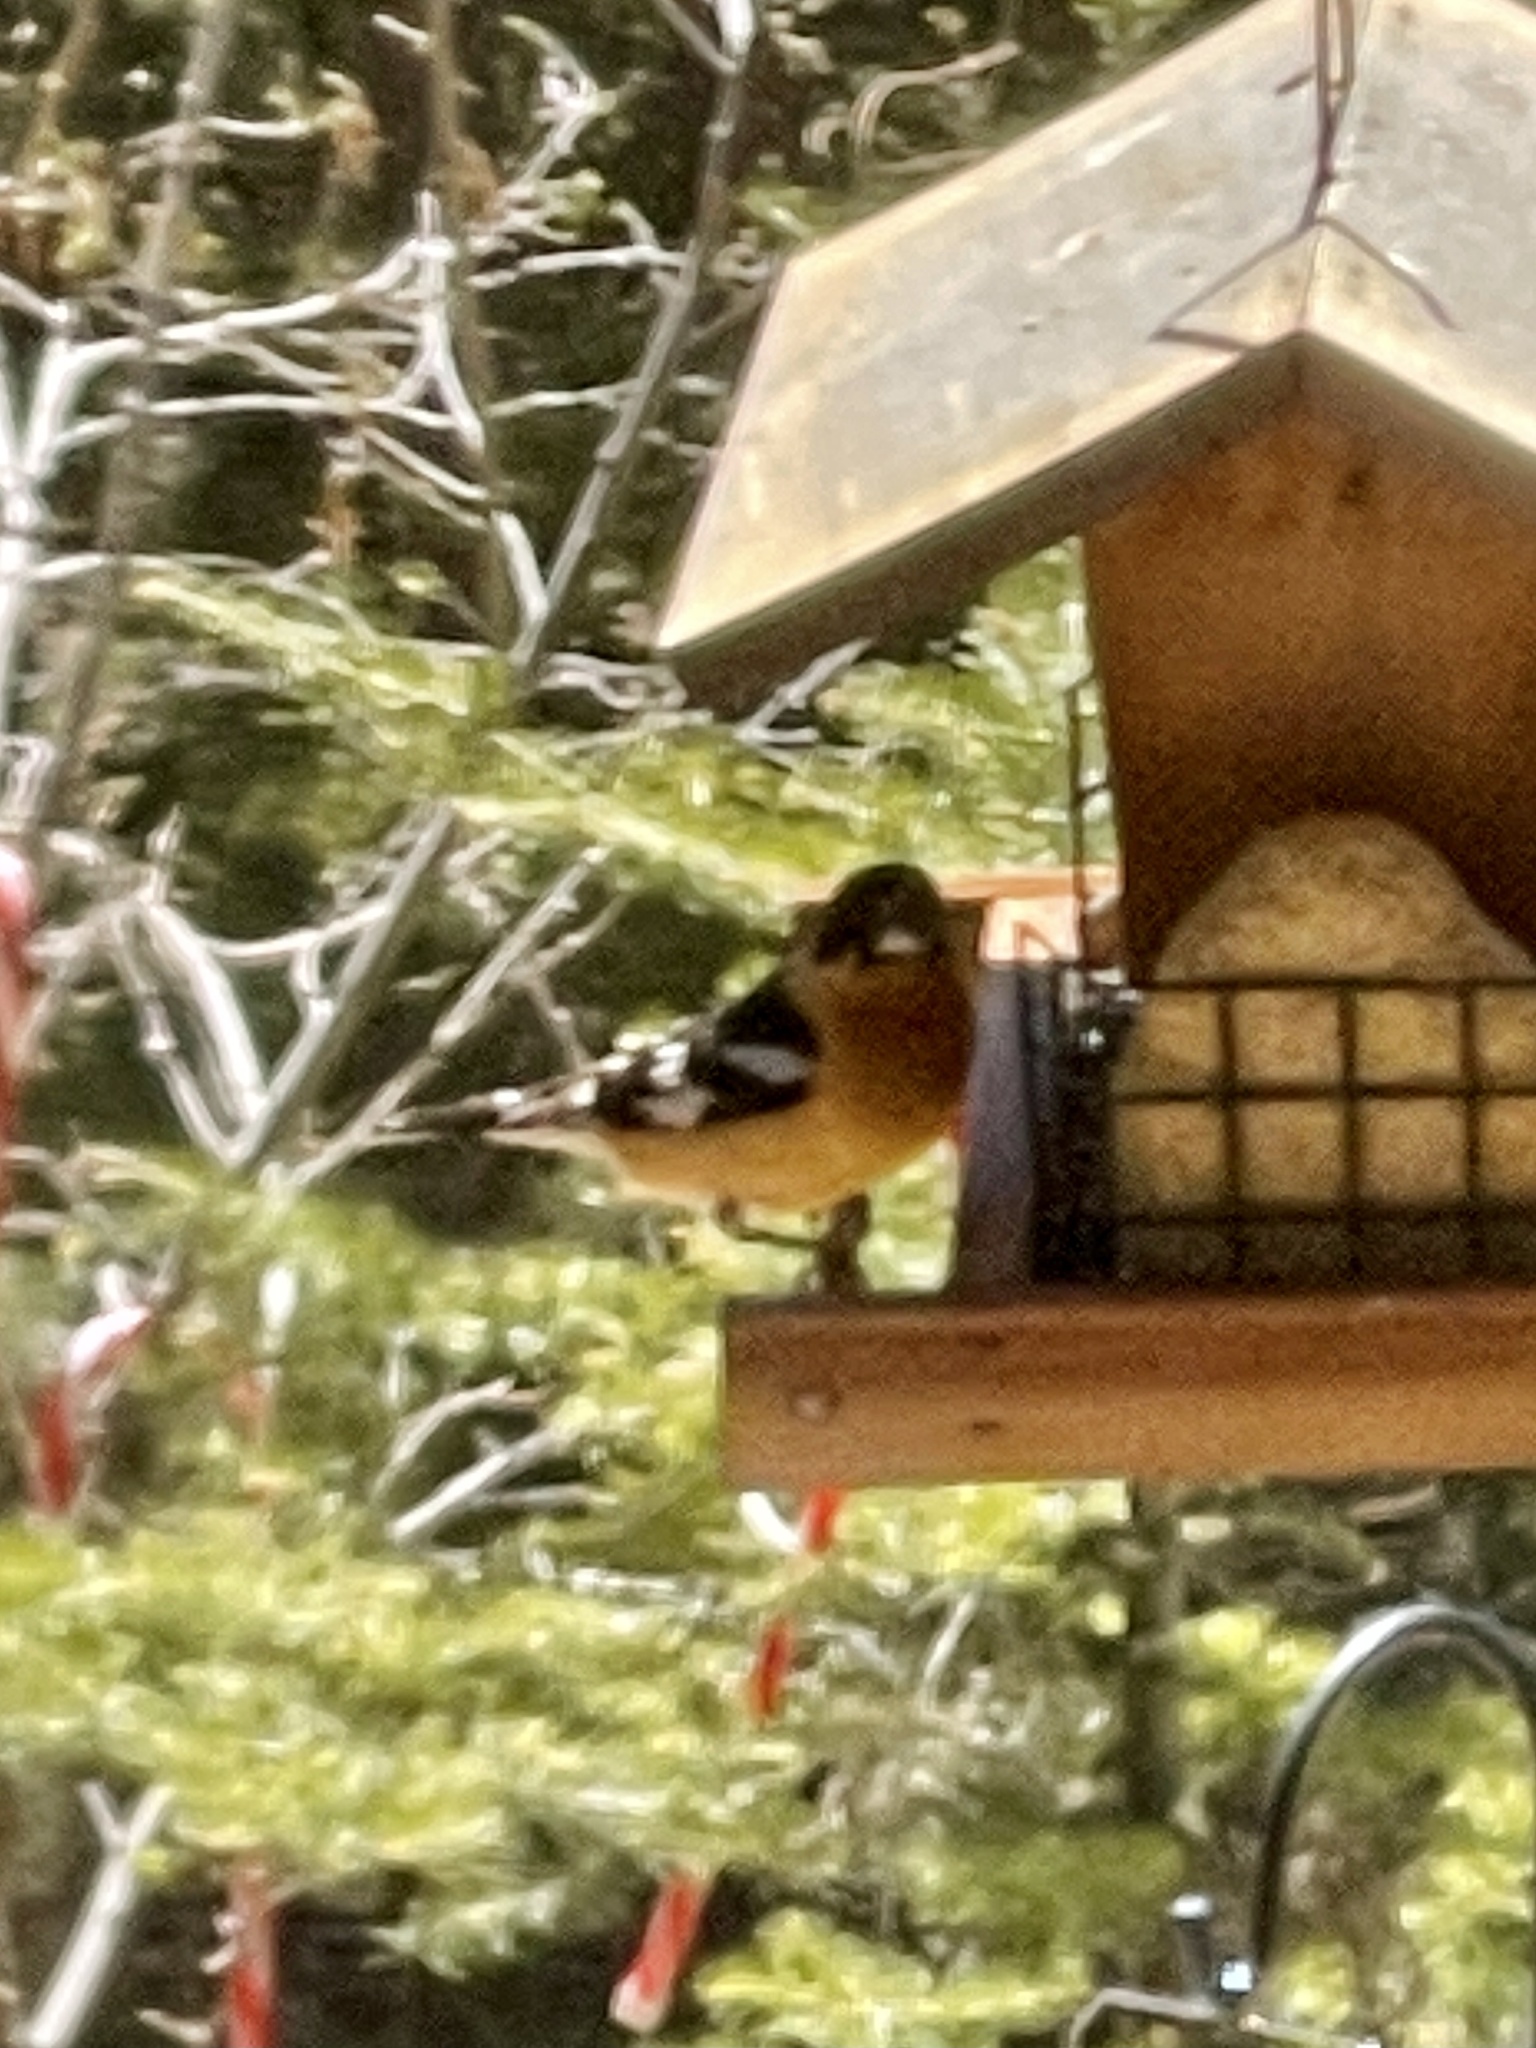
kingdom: Animalia
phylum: Chordata
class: Aves
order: Passeriformes
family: Cardinalidae
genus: Pheucticus
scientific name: Pheucticus melanocephalus
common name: Black-headed grosbeak
